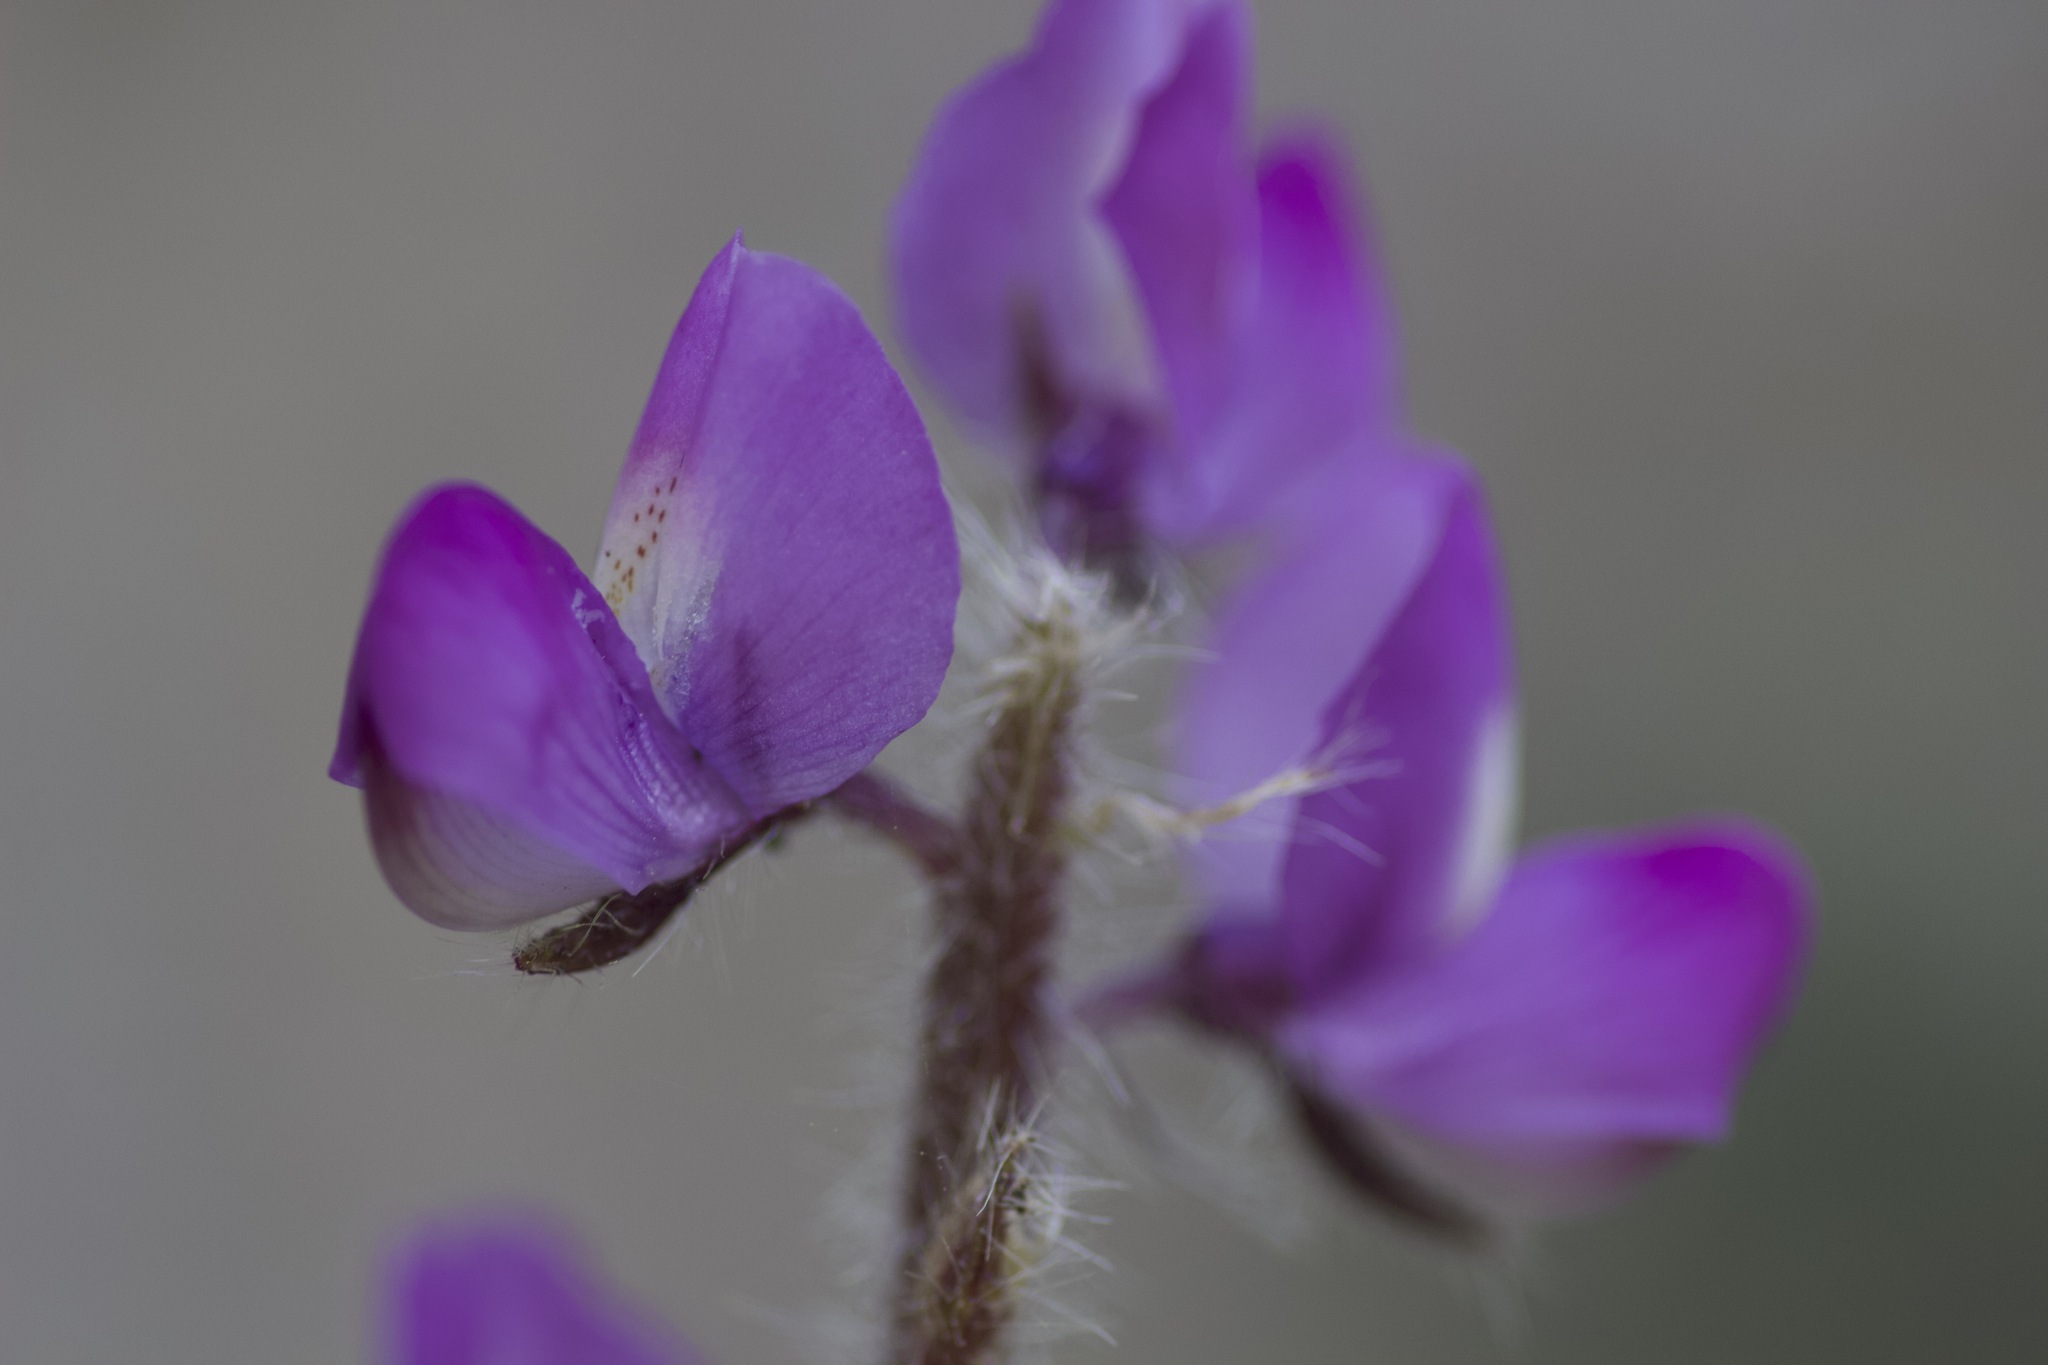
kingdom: Plantae
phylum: Tracheophyta
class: Magnoliopsida
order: Fabales
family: Fabaceae
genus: Lupinus
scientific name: Lupinus hirsutissimus
